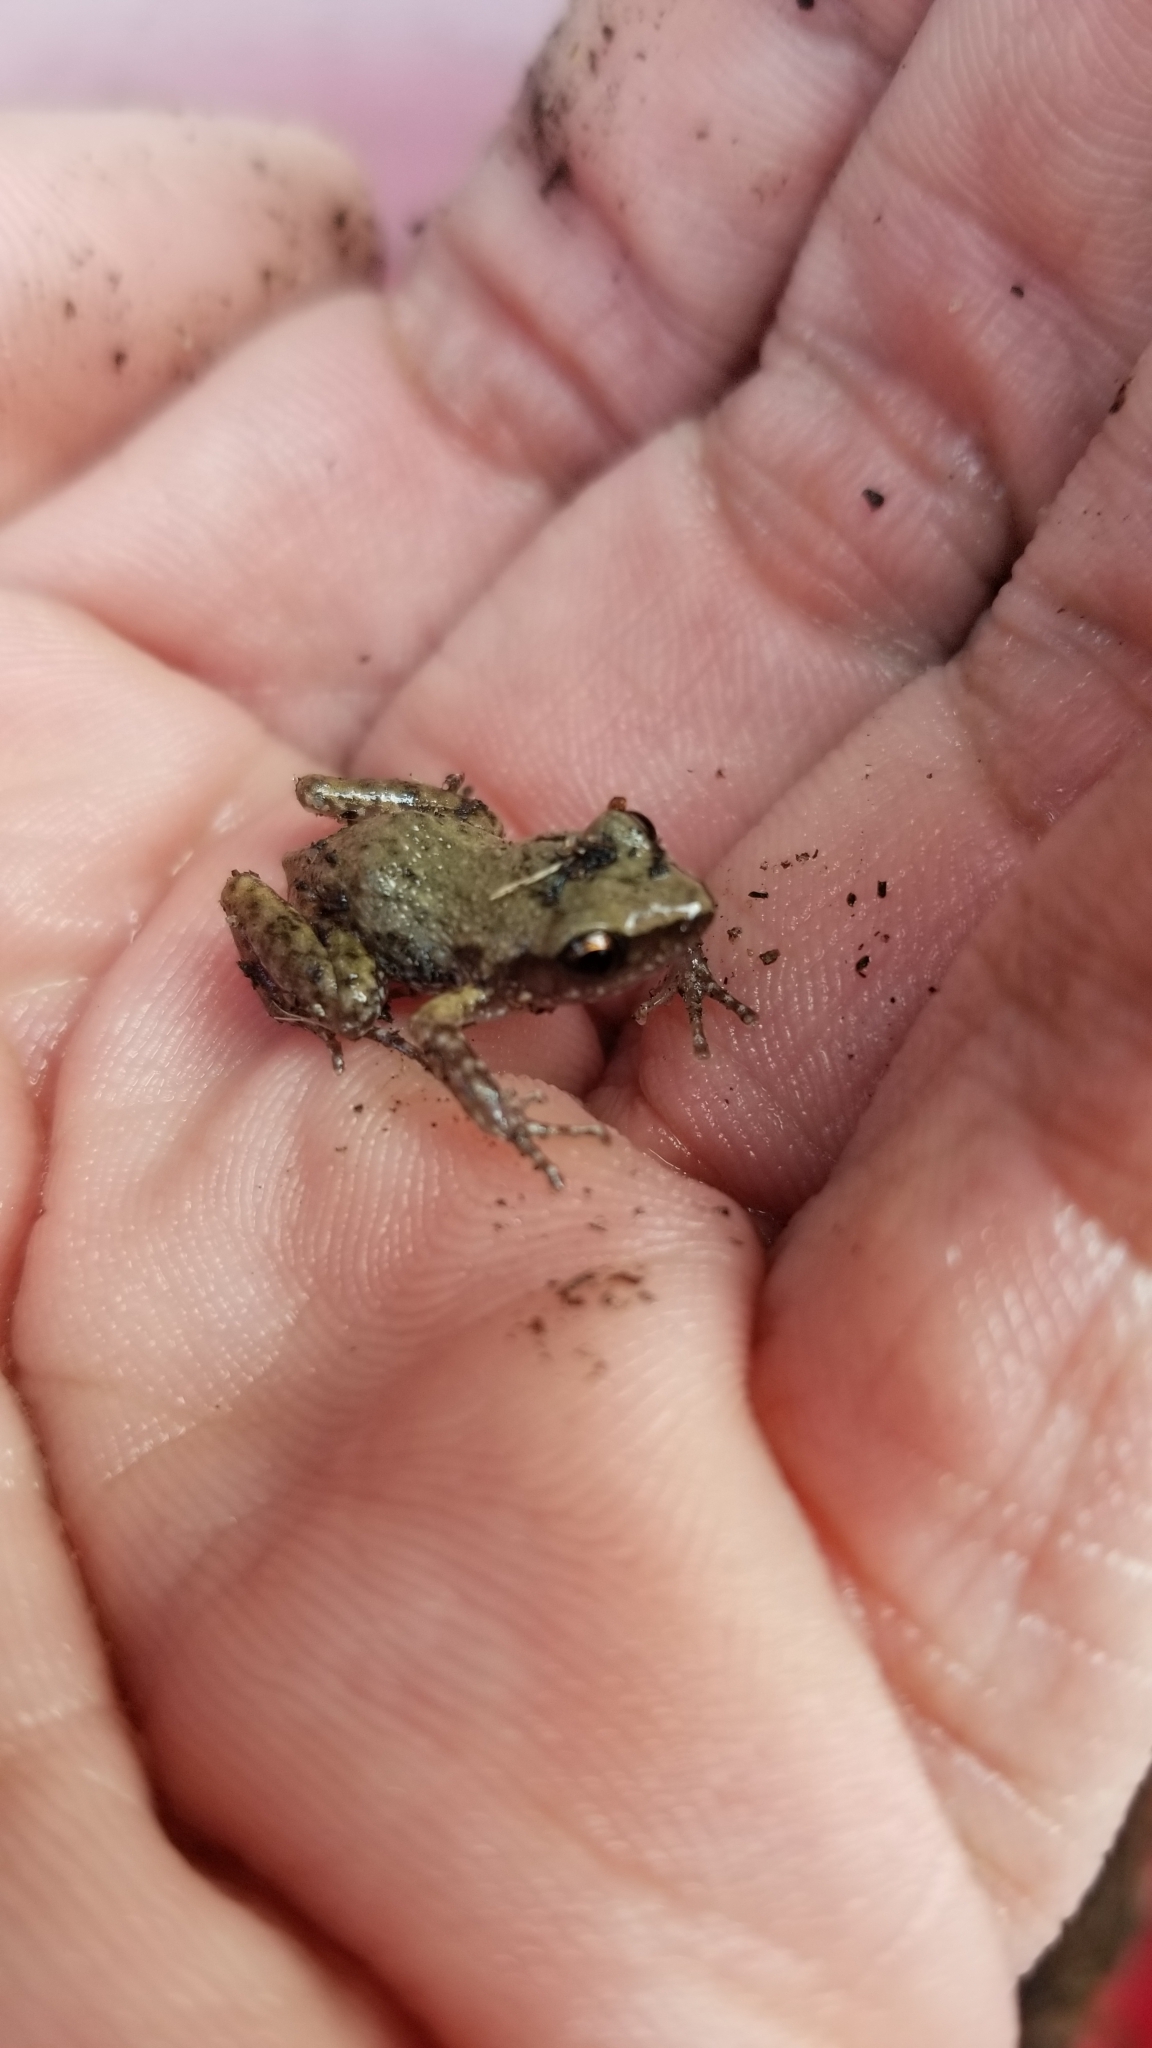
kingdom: Animalia
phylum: Chordata
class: Amphibia
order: Anura
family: Eleutherodactylidae
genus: Eleutherodactylus
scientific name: Eleutherodactylus campi
